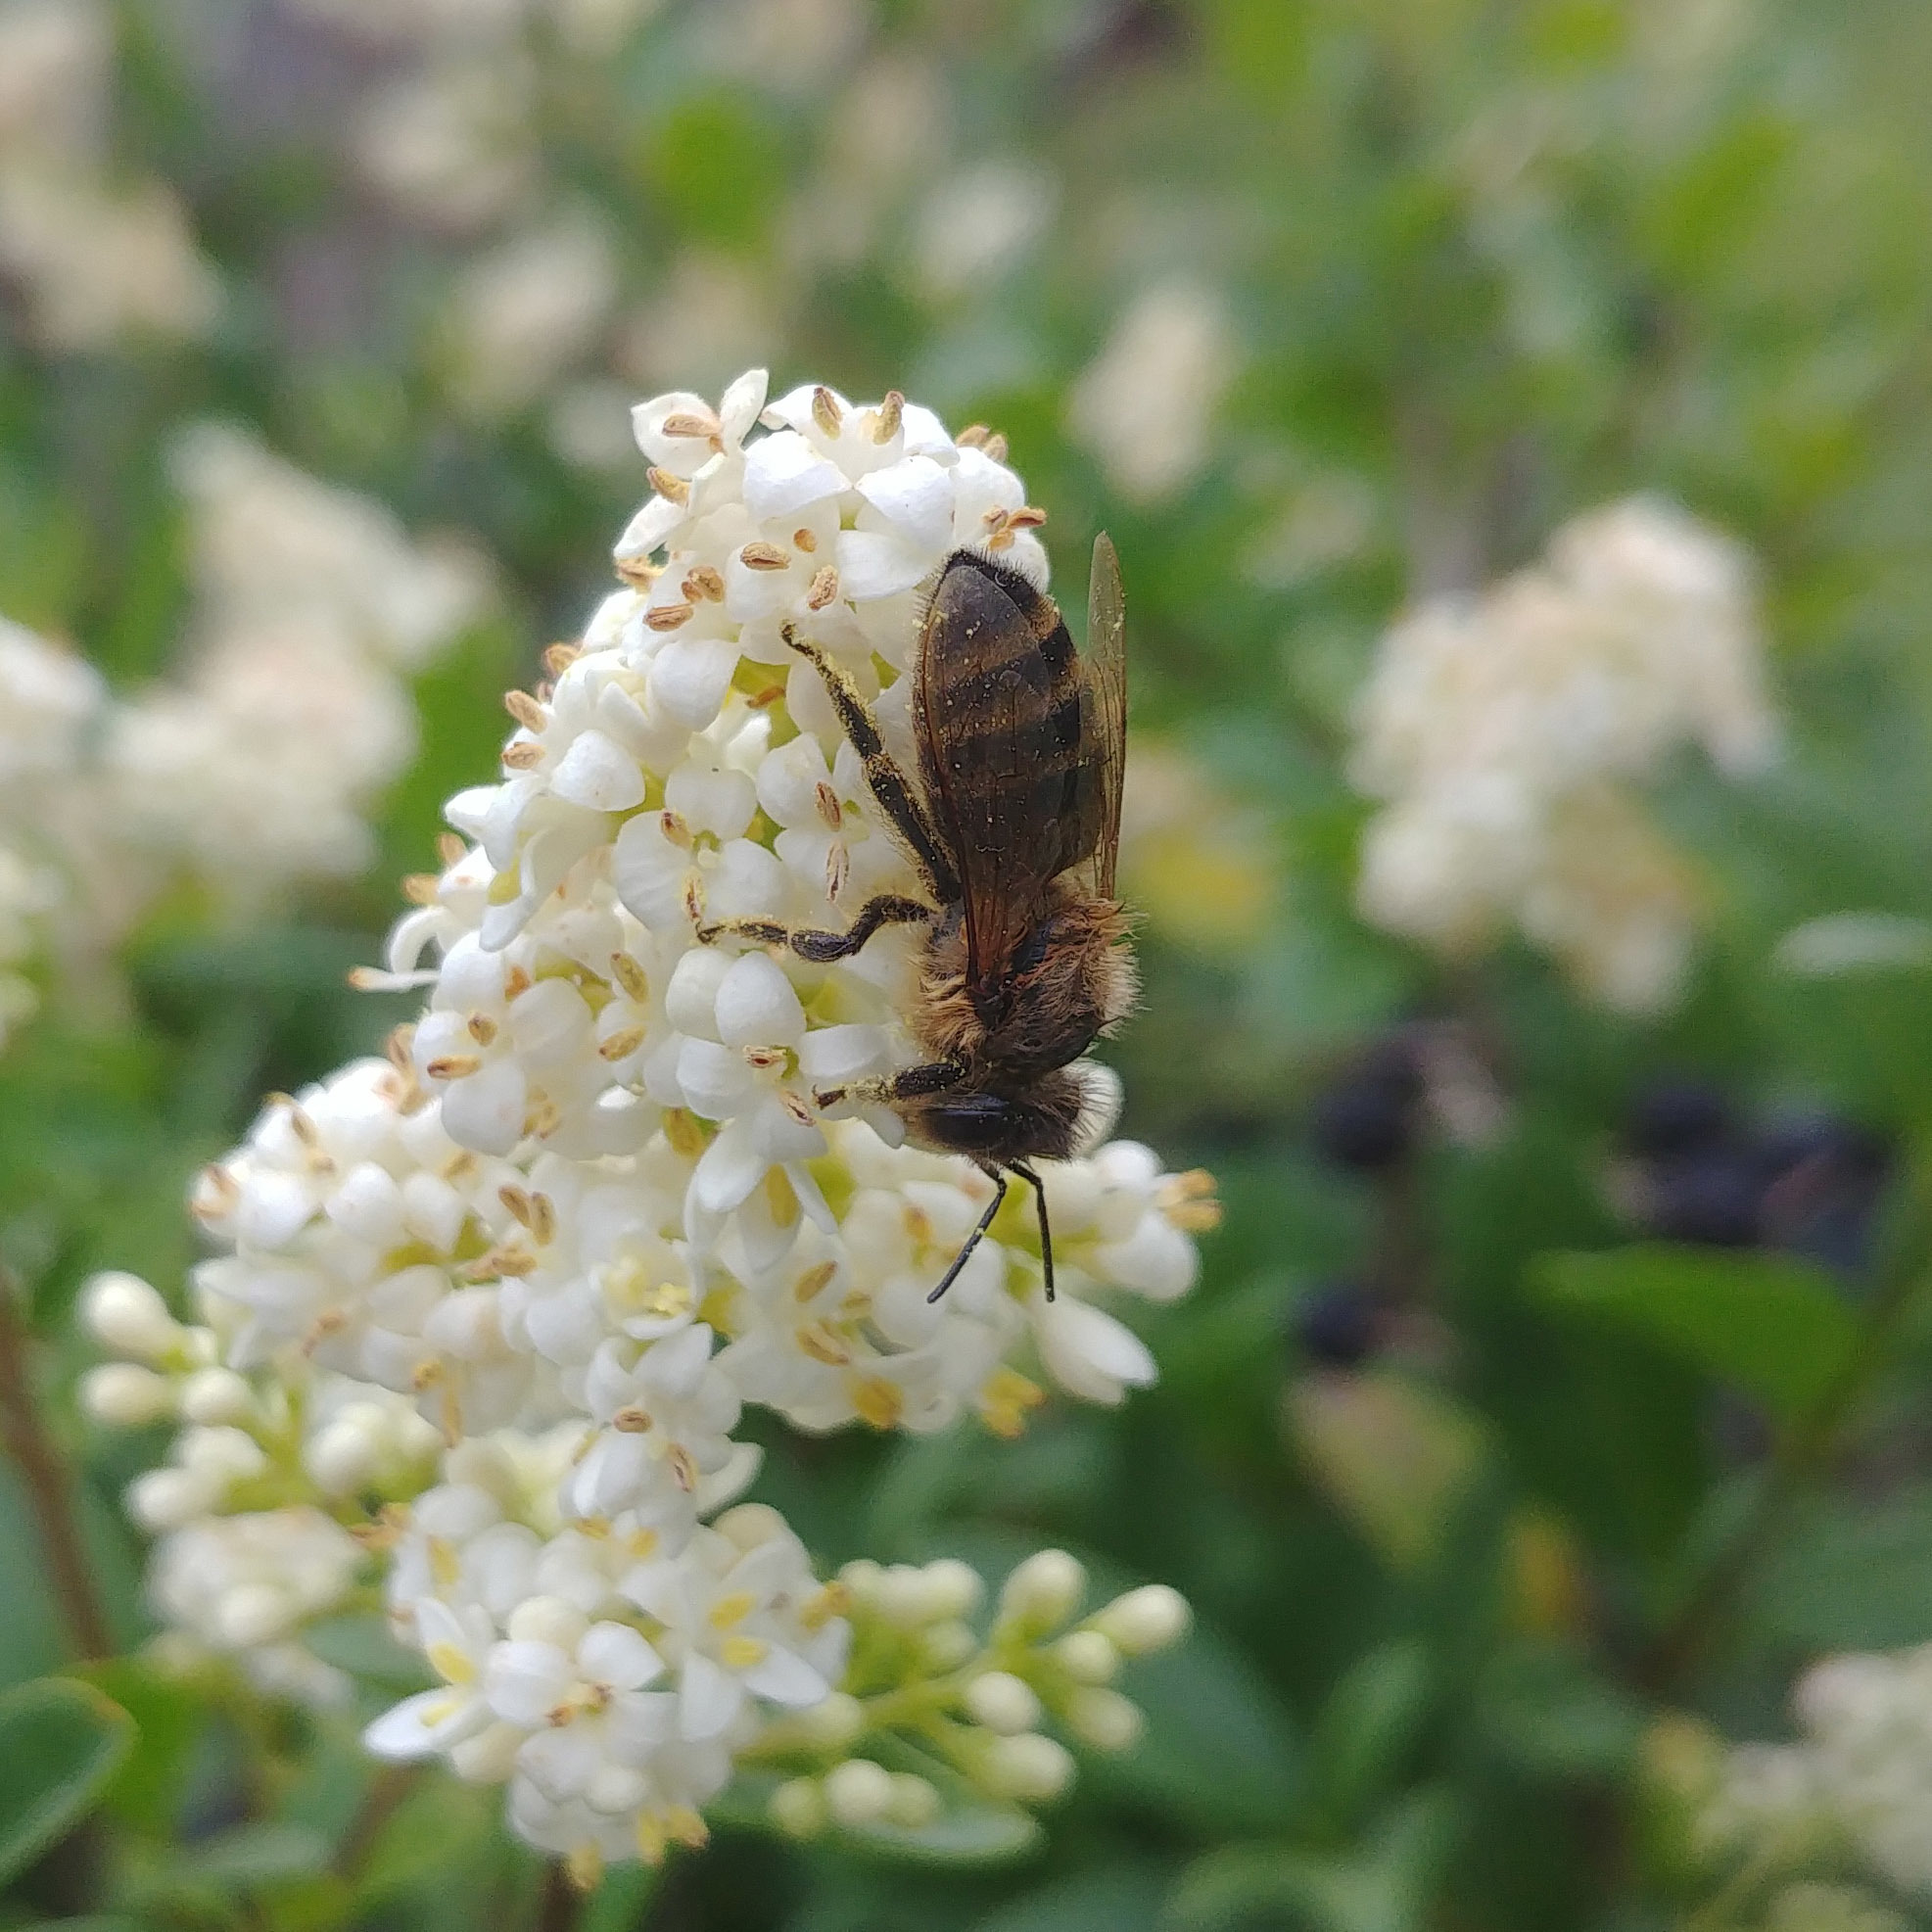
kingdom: Animalia
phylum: Arthropoda
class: Insecta
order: Hymenoptera
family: Apidae
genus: Apis
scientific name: Apis mellifera
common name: Honey bee
